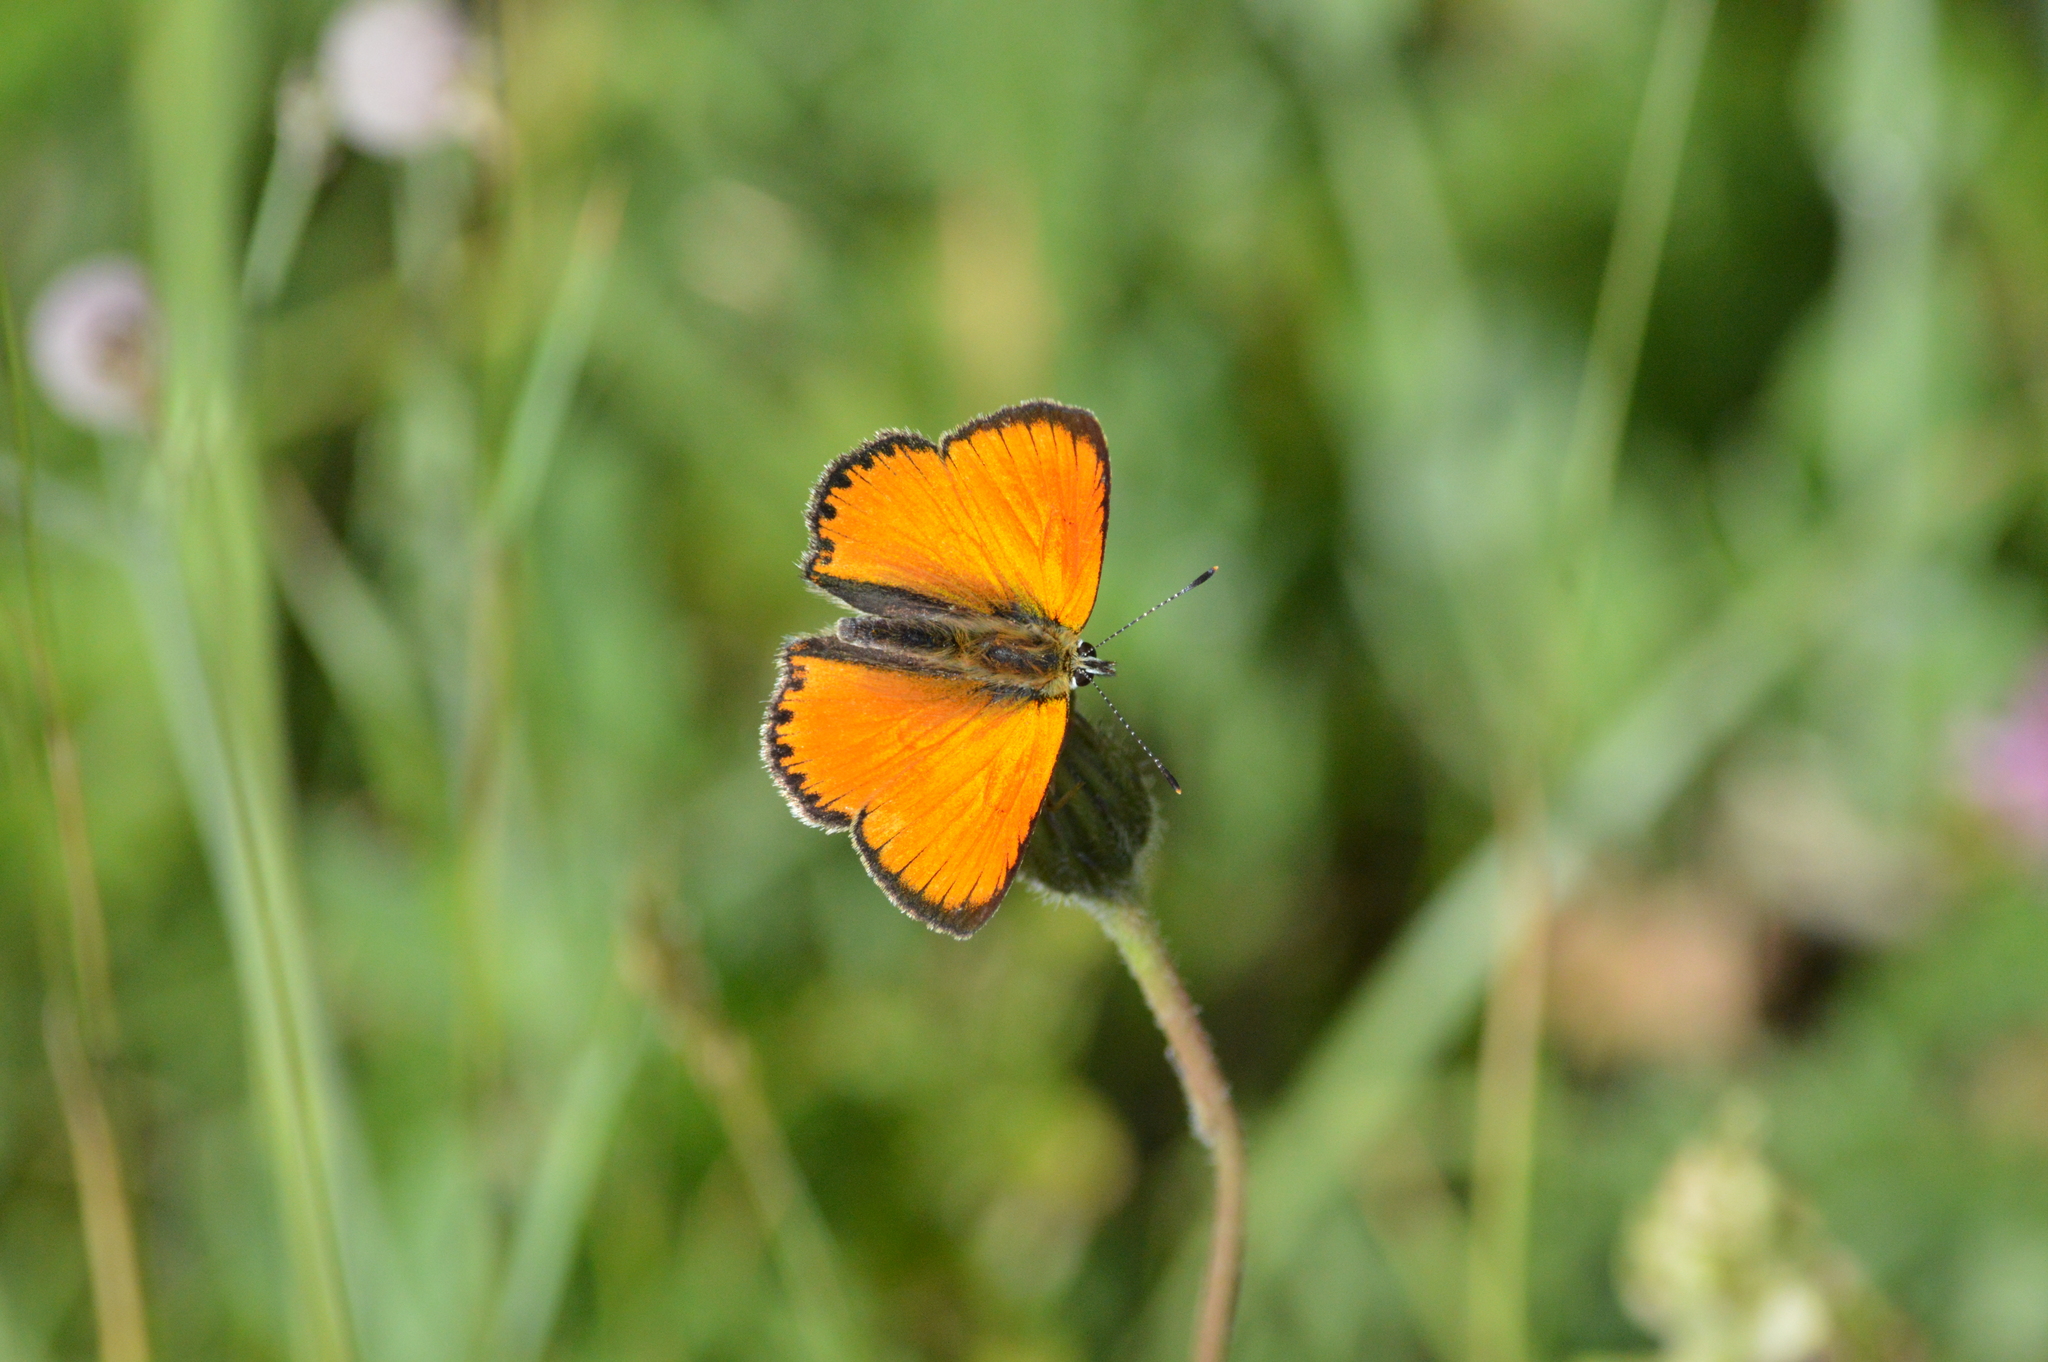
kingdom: Animalia
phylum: Arthropoda
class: Insecta
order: Lepidoptera
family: Lycaenidae
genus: Lycaena
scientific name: Lycaena virgaureae
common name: Scarce copper
